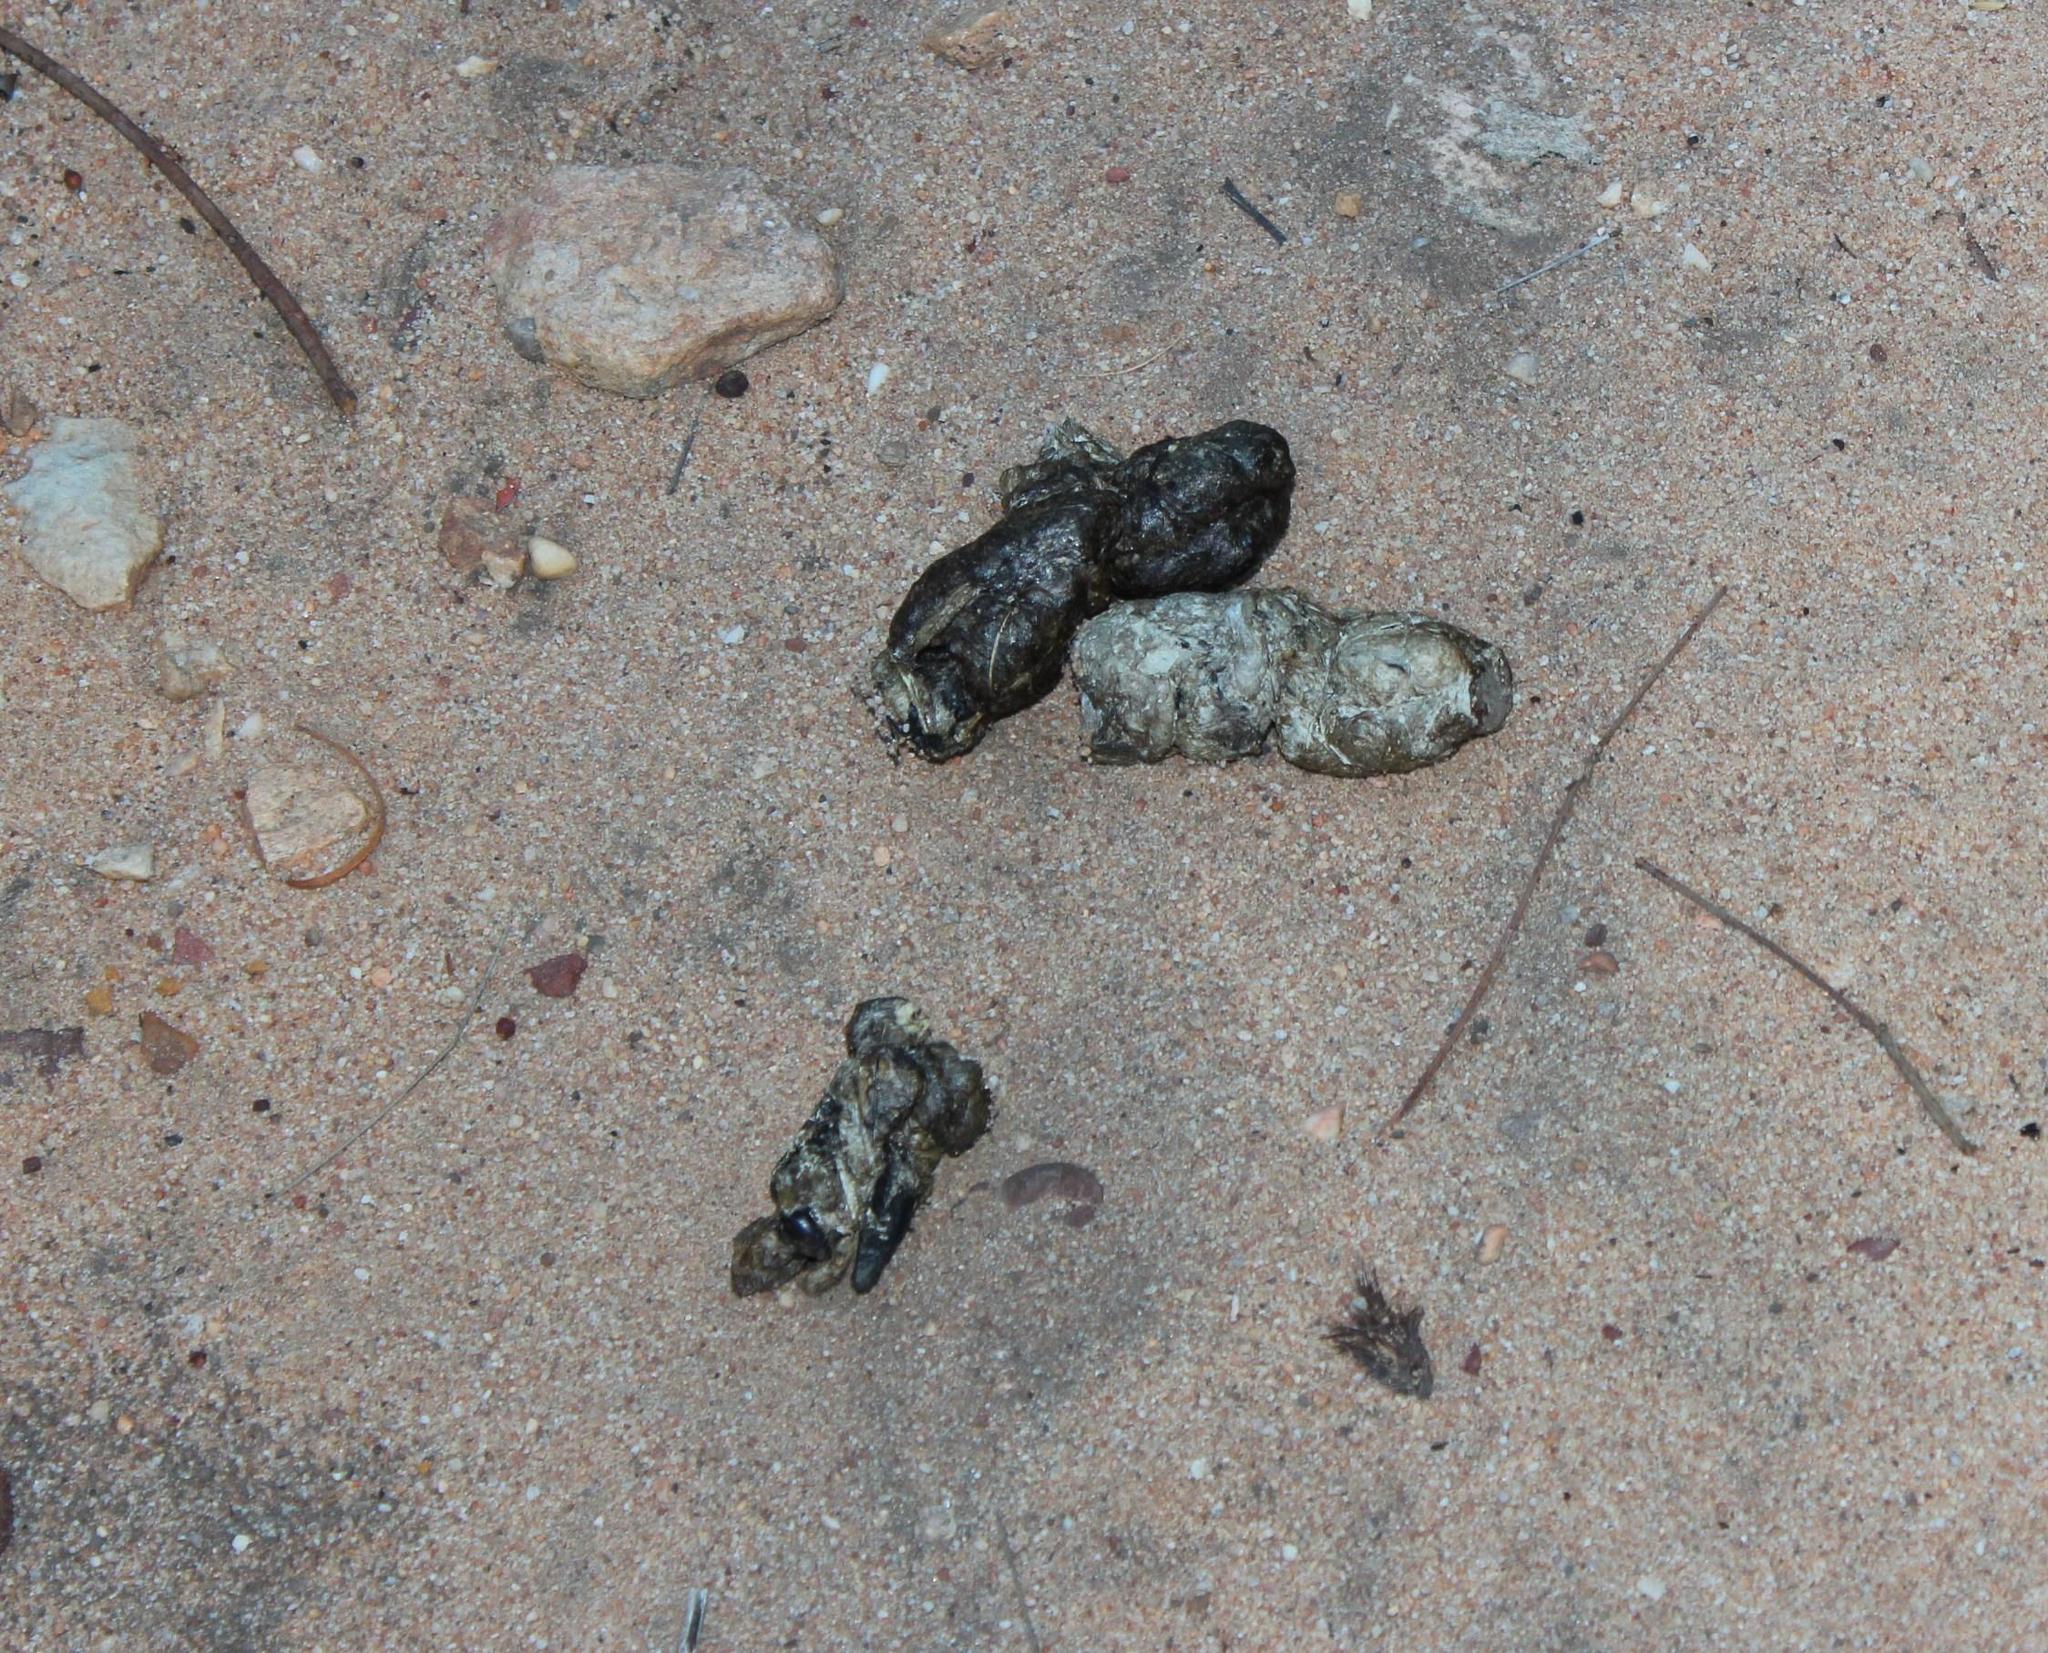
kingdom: Animalia
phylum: Chordata
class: Mammalia
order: Carnivora
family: Felidae
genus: Panthera
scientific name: Panthera pardus
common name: Leopard
